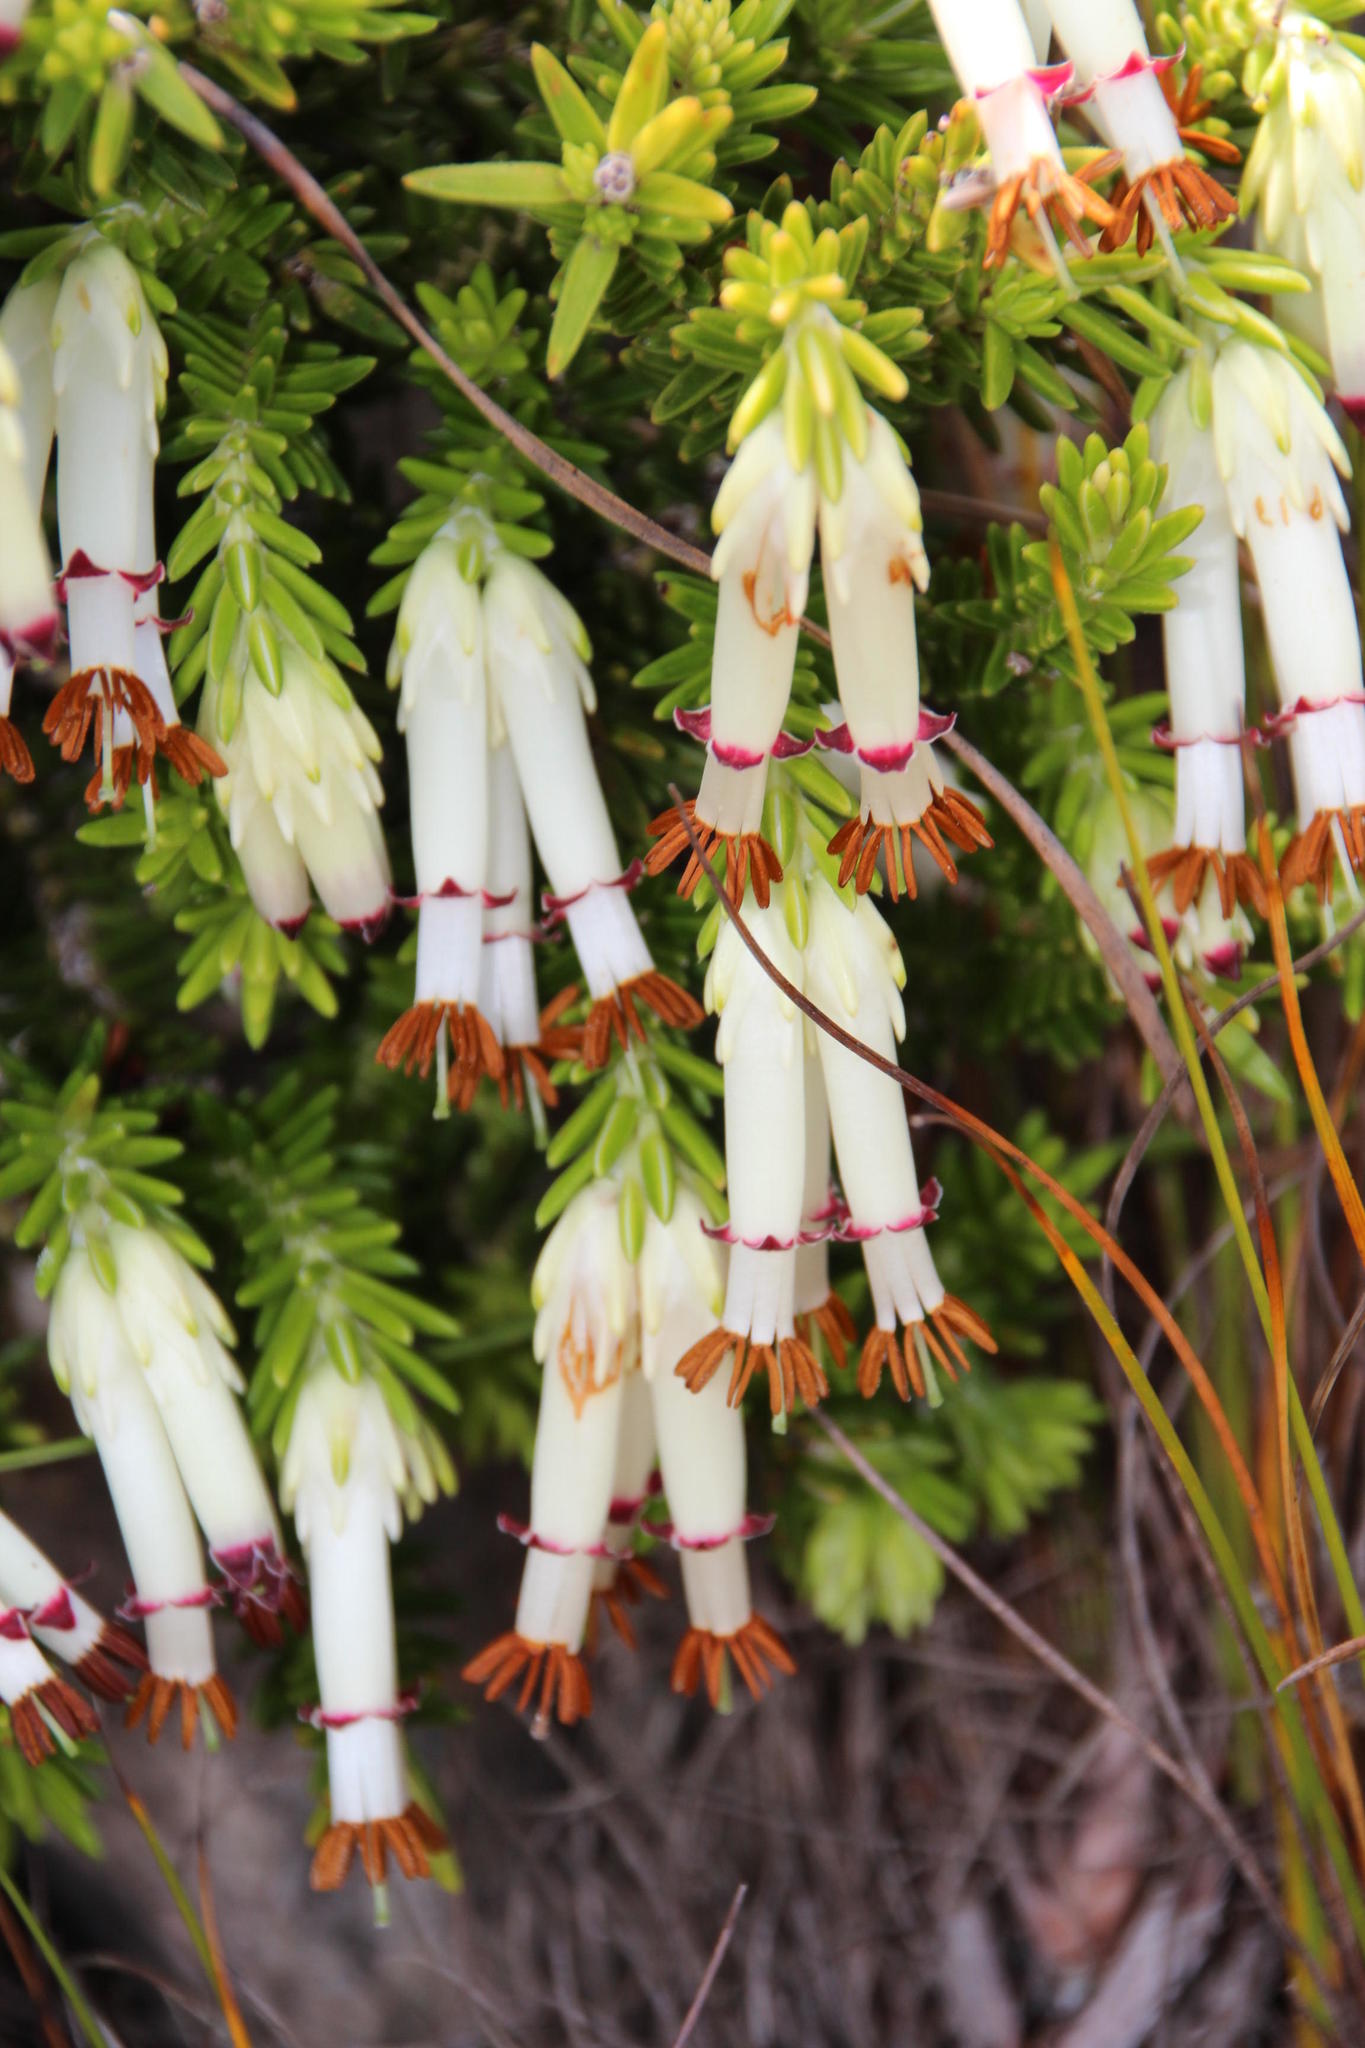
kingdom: Plantae
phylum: Tracheophyta
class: Magnoliopsida
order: Ericales
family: Ericaceae
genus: Erica
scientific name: Erica banksia
